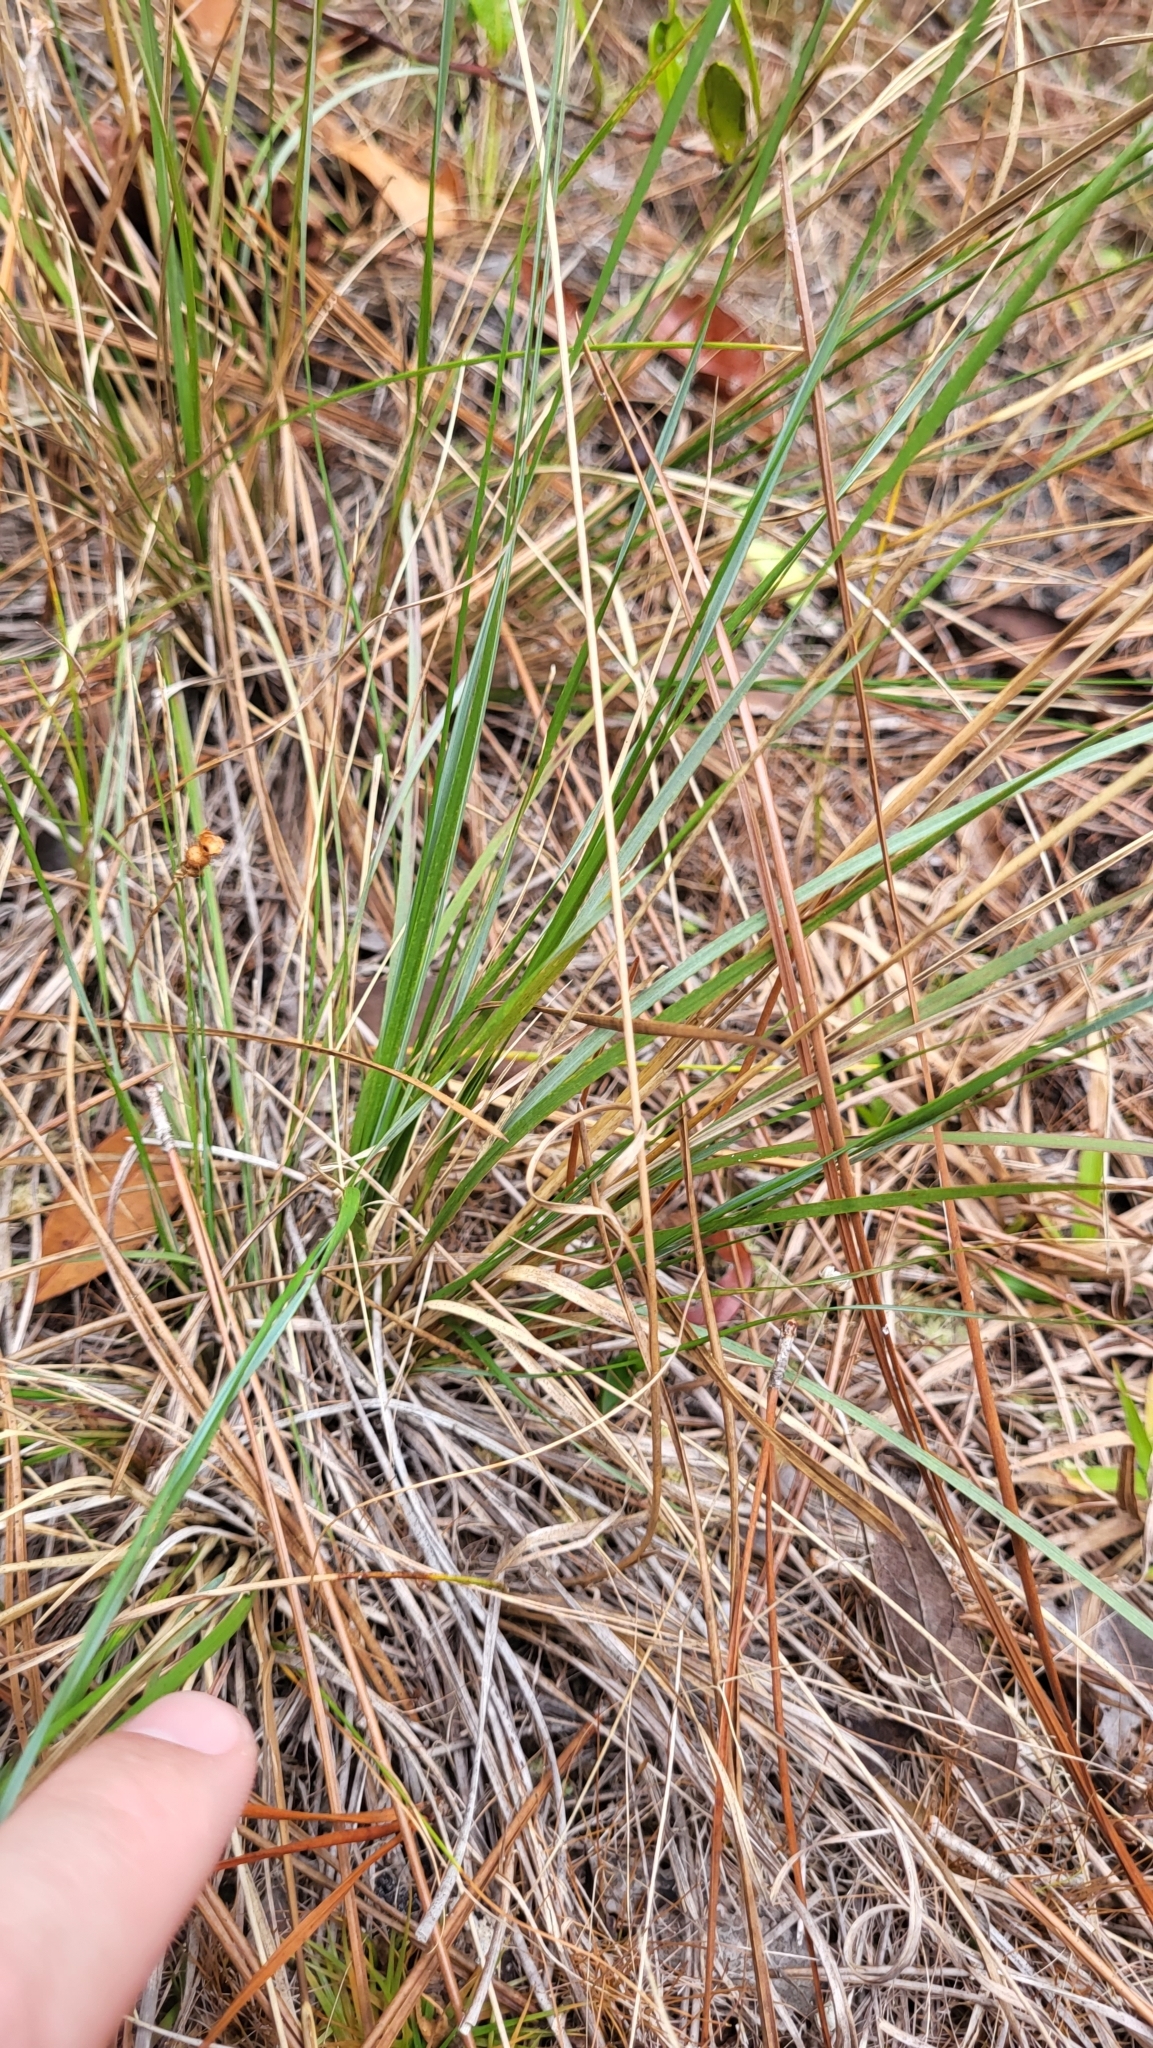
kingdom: Plantae
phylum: Tracheophyta
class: Liliopsida
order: Poales
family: Poaceae
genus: Aristida
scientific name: Aristida spiciformis
